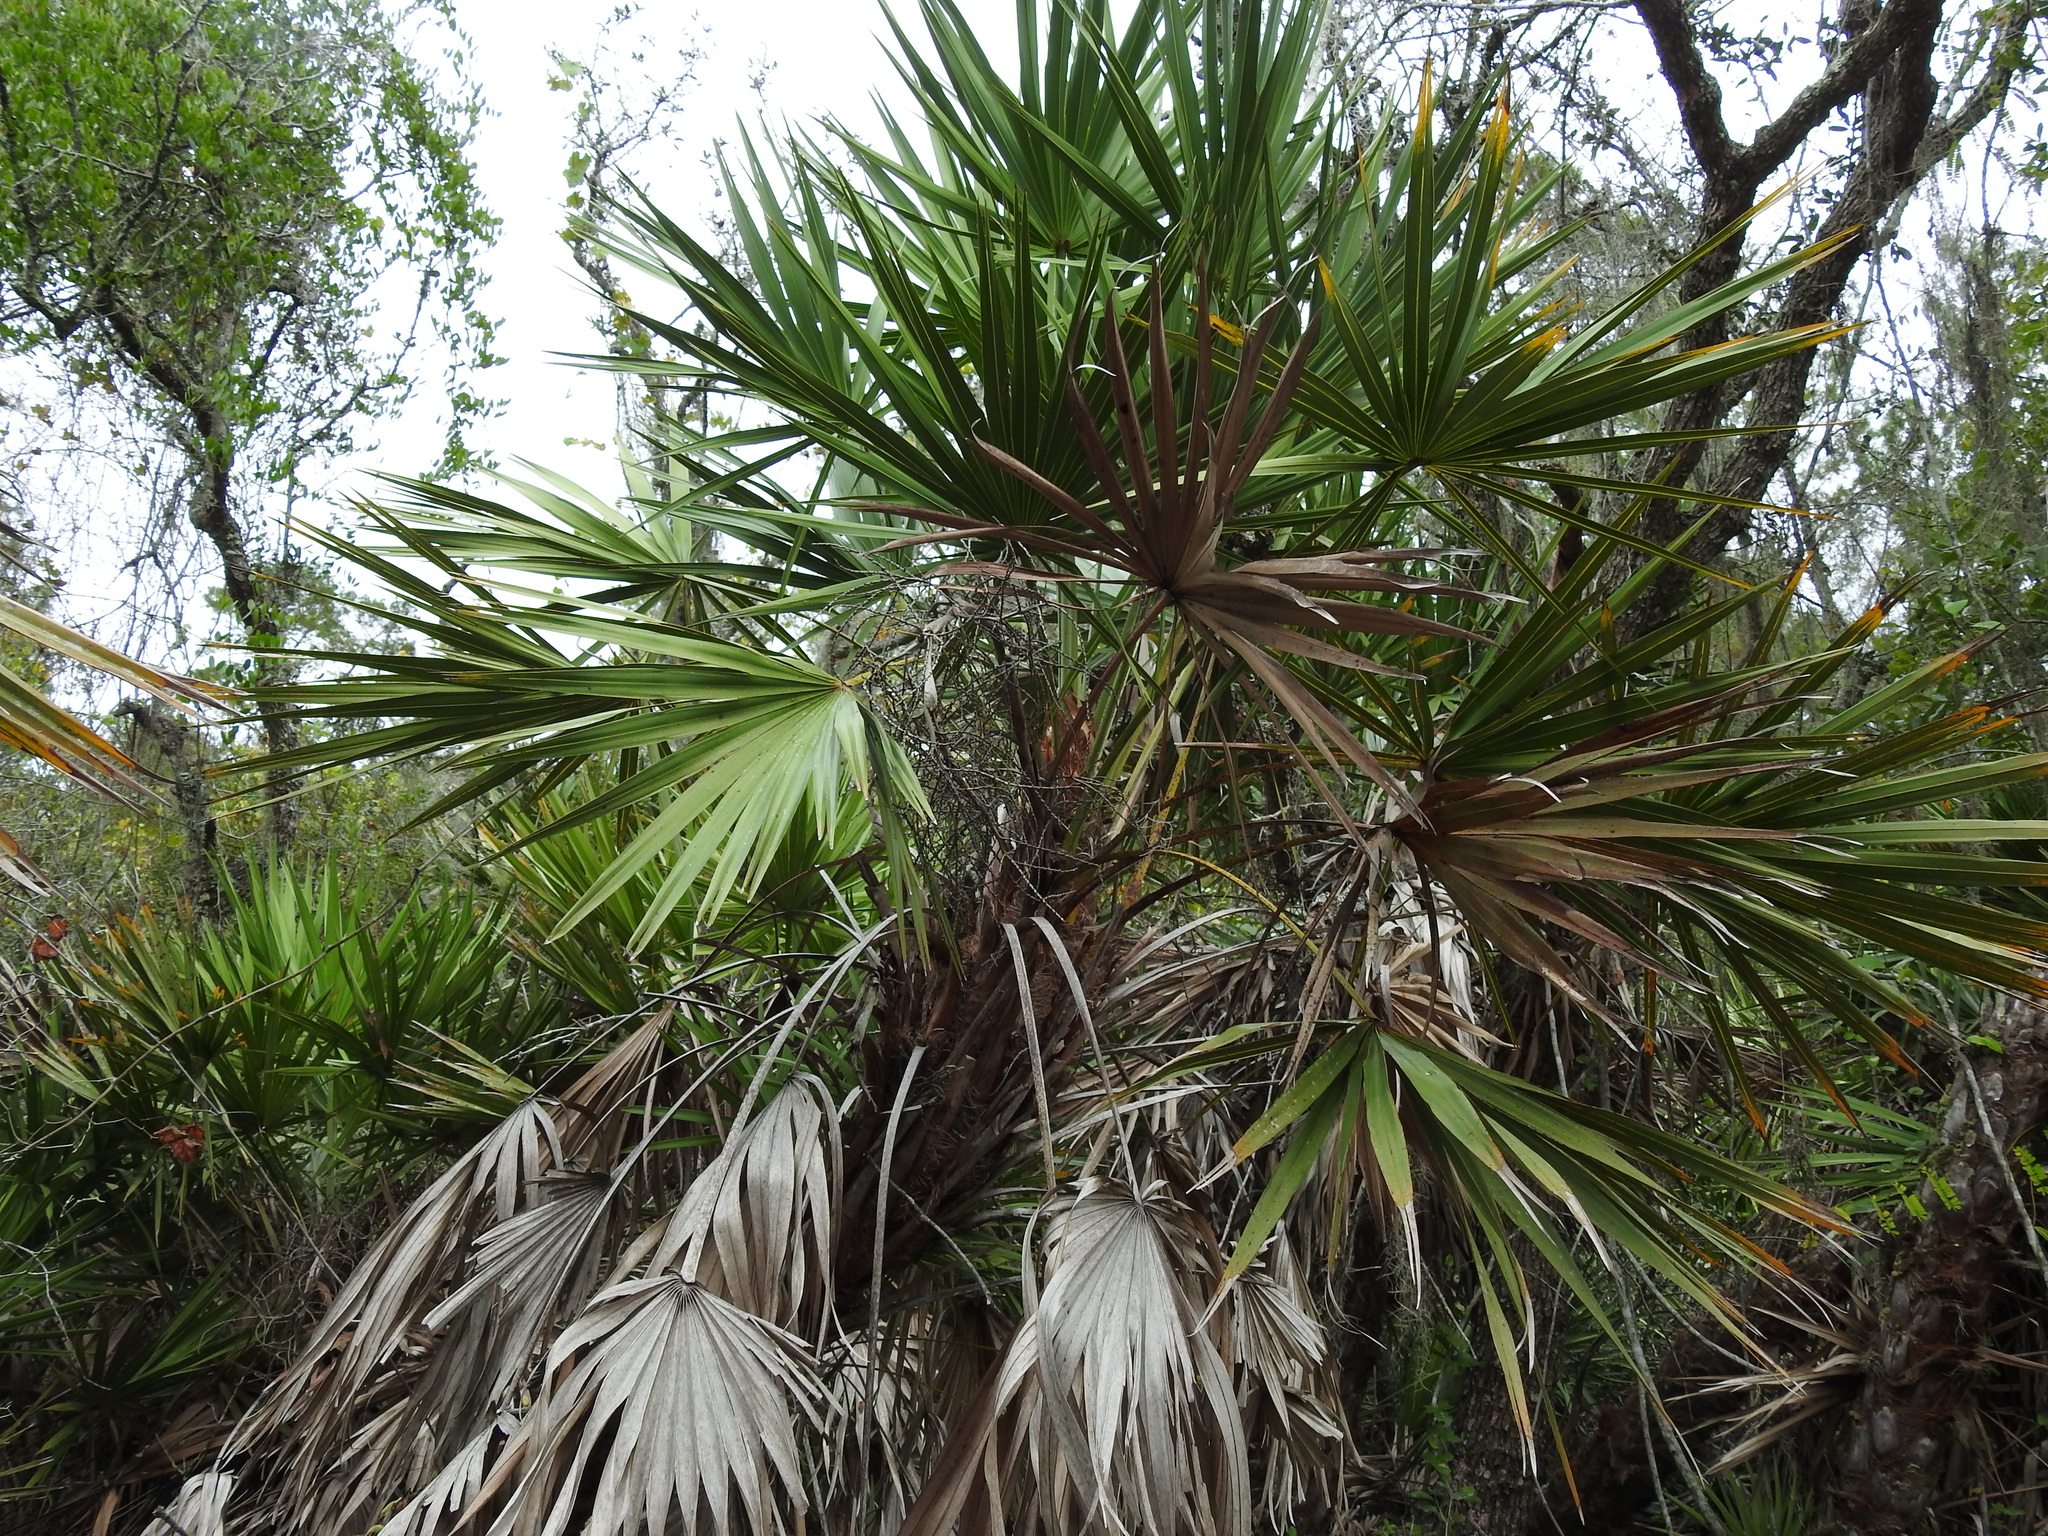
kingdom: Plantae
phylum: Tracheophyta
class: Liliopsida
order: Arecales
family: Arecaceae
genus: Serenoa
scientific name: Serenoa repens
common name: Saw-palmetto
